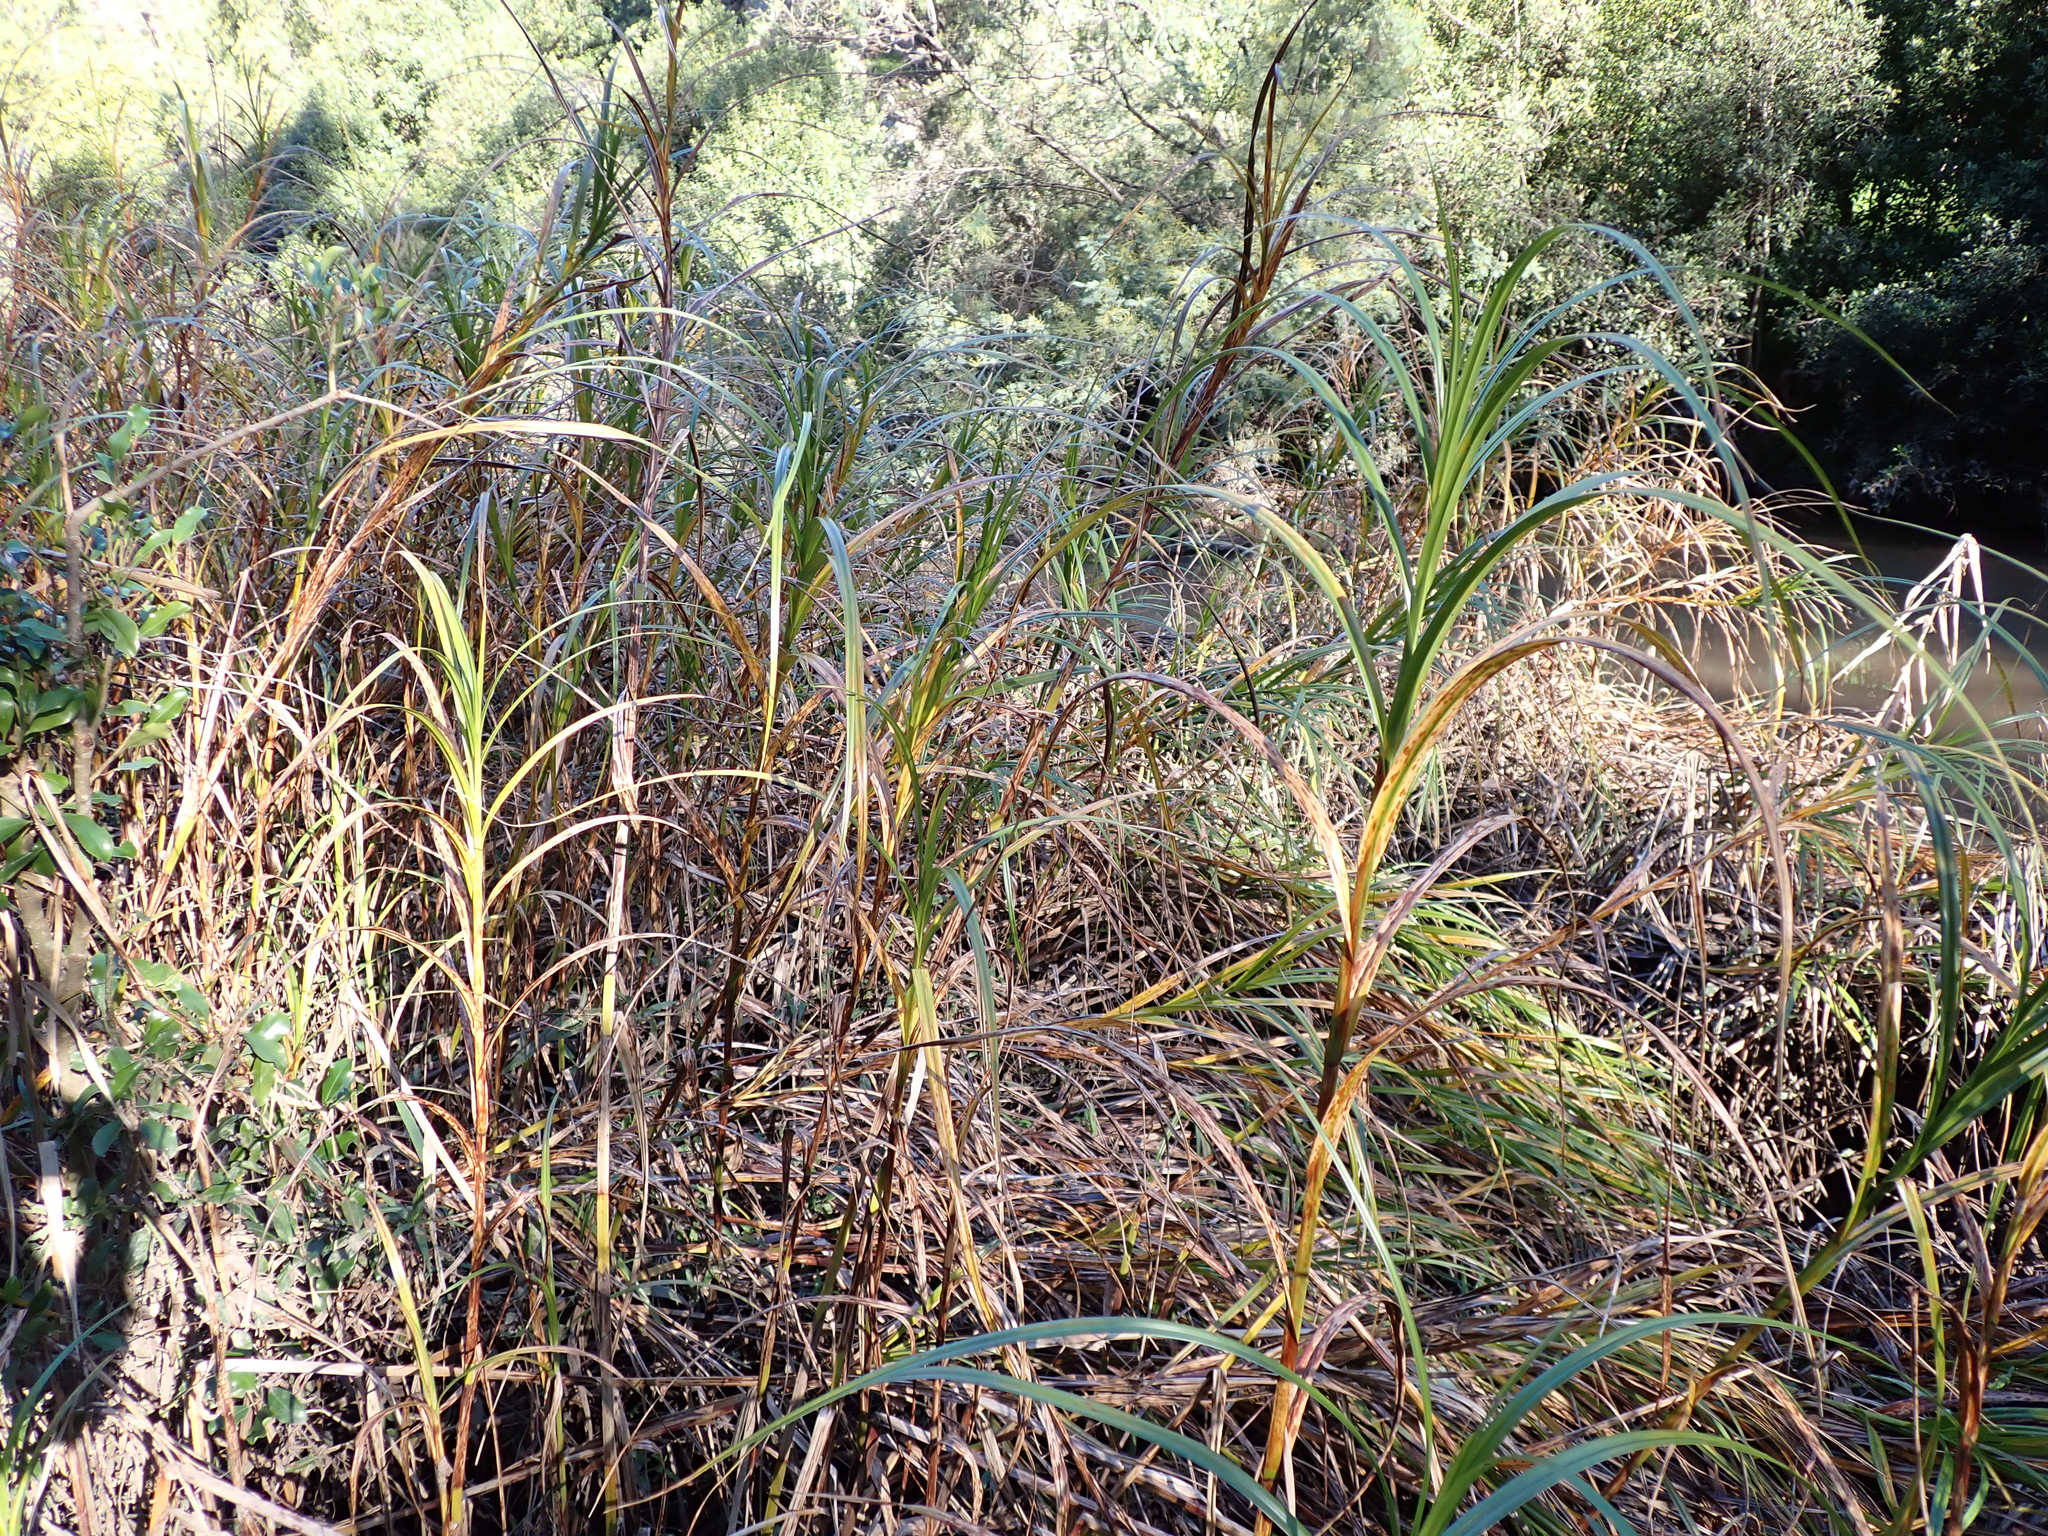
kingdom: Plantae
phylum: Tracheophyta
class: Liliopsida
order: Poales
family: Cyperaceae
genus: Bolboschoenus
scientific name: Bolboschoenus fluviatilis
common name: River bulrush
